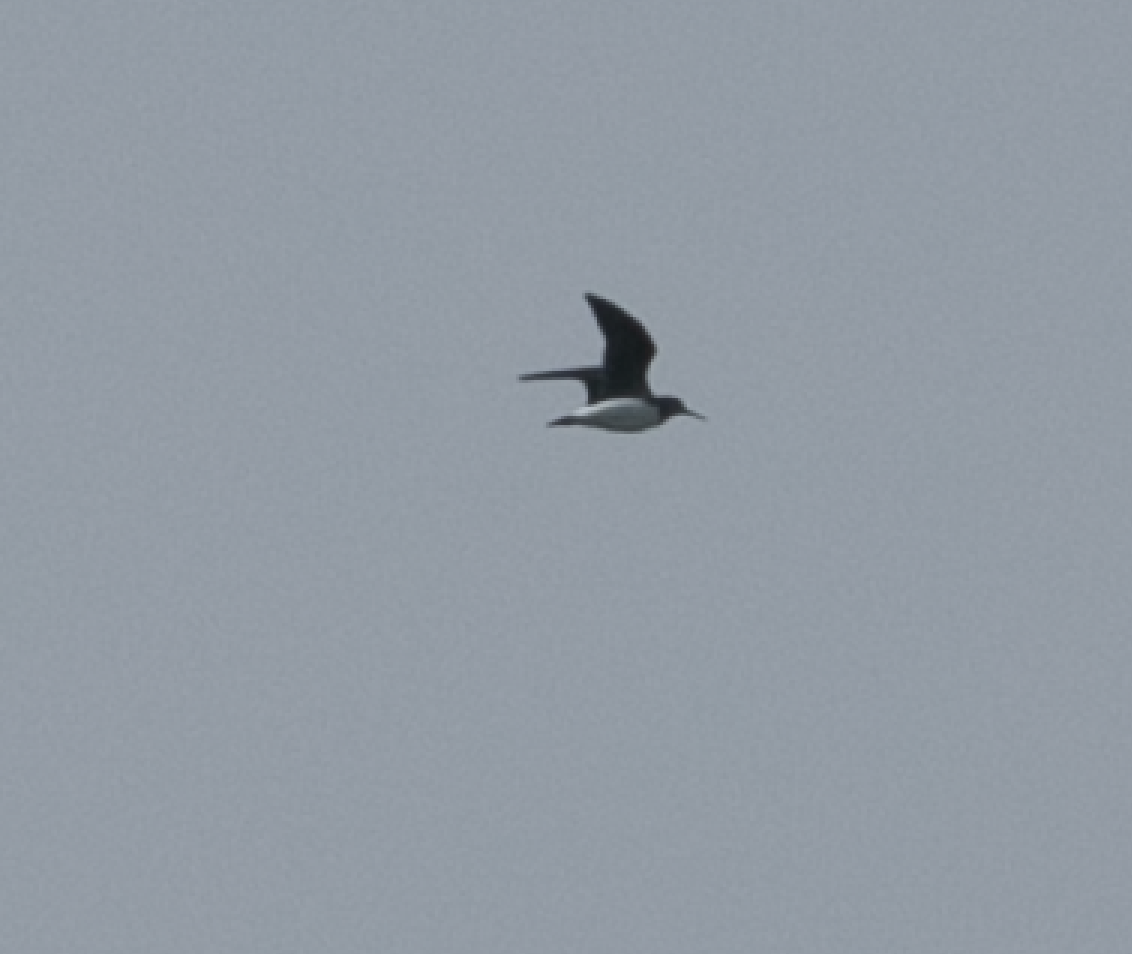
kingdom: Animalia
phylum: Chordata
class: Aves
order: Charadriiformes
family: Scolopacidae
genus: Tringa
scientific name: Tringa ochropus
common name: Green sandpiper
